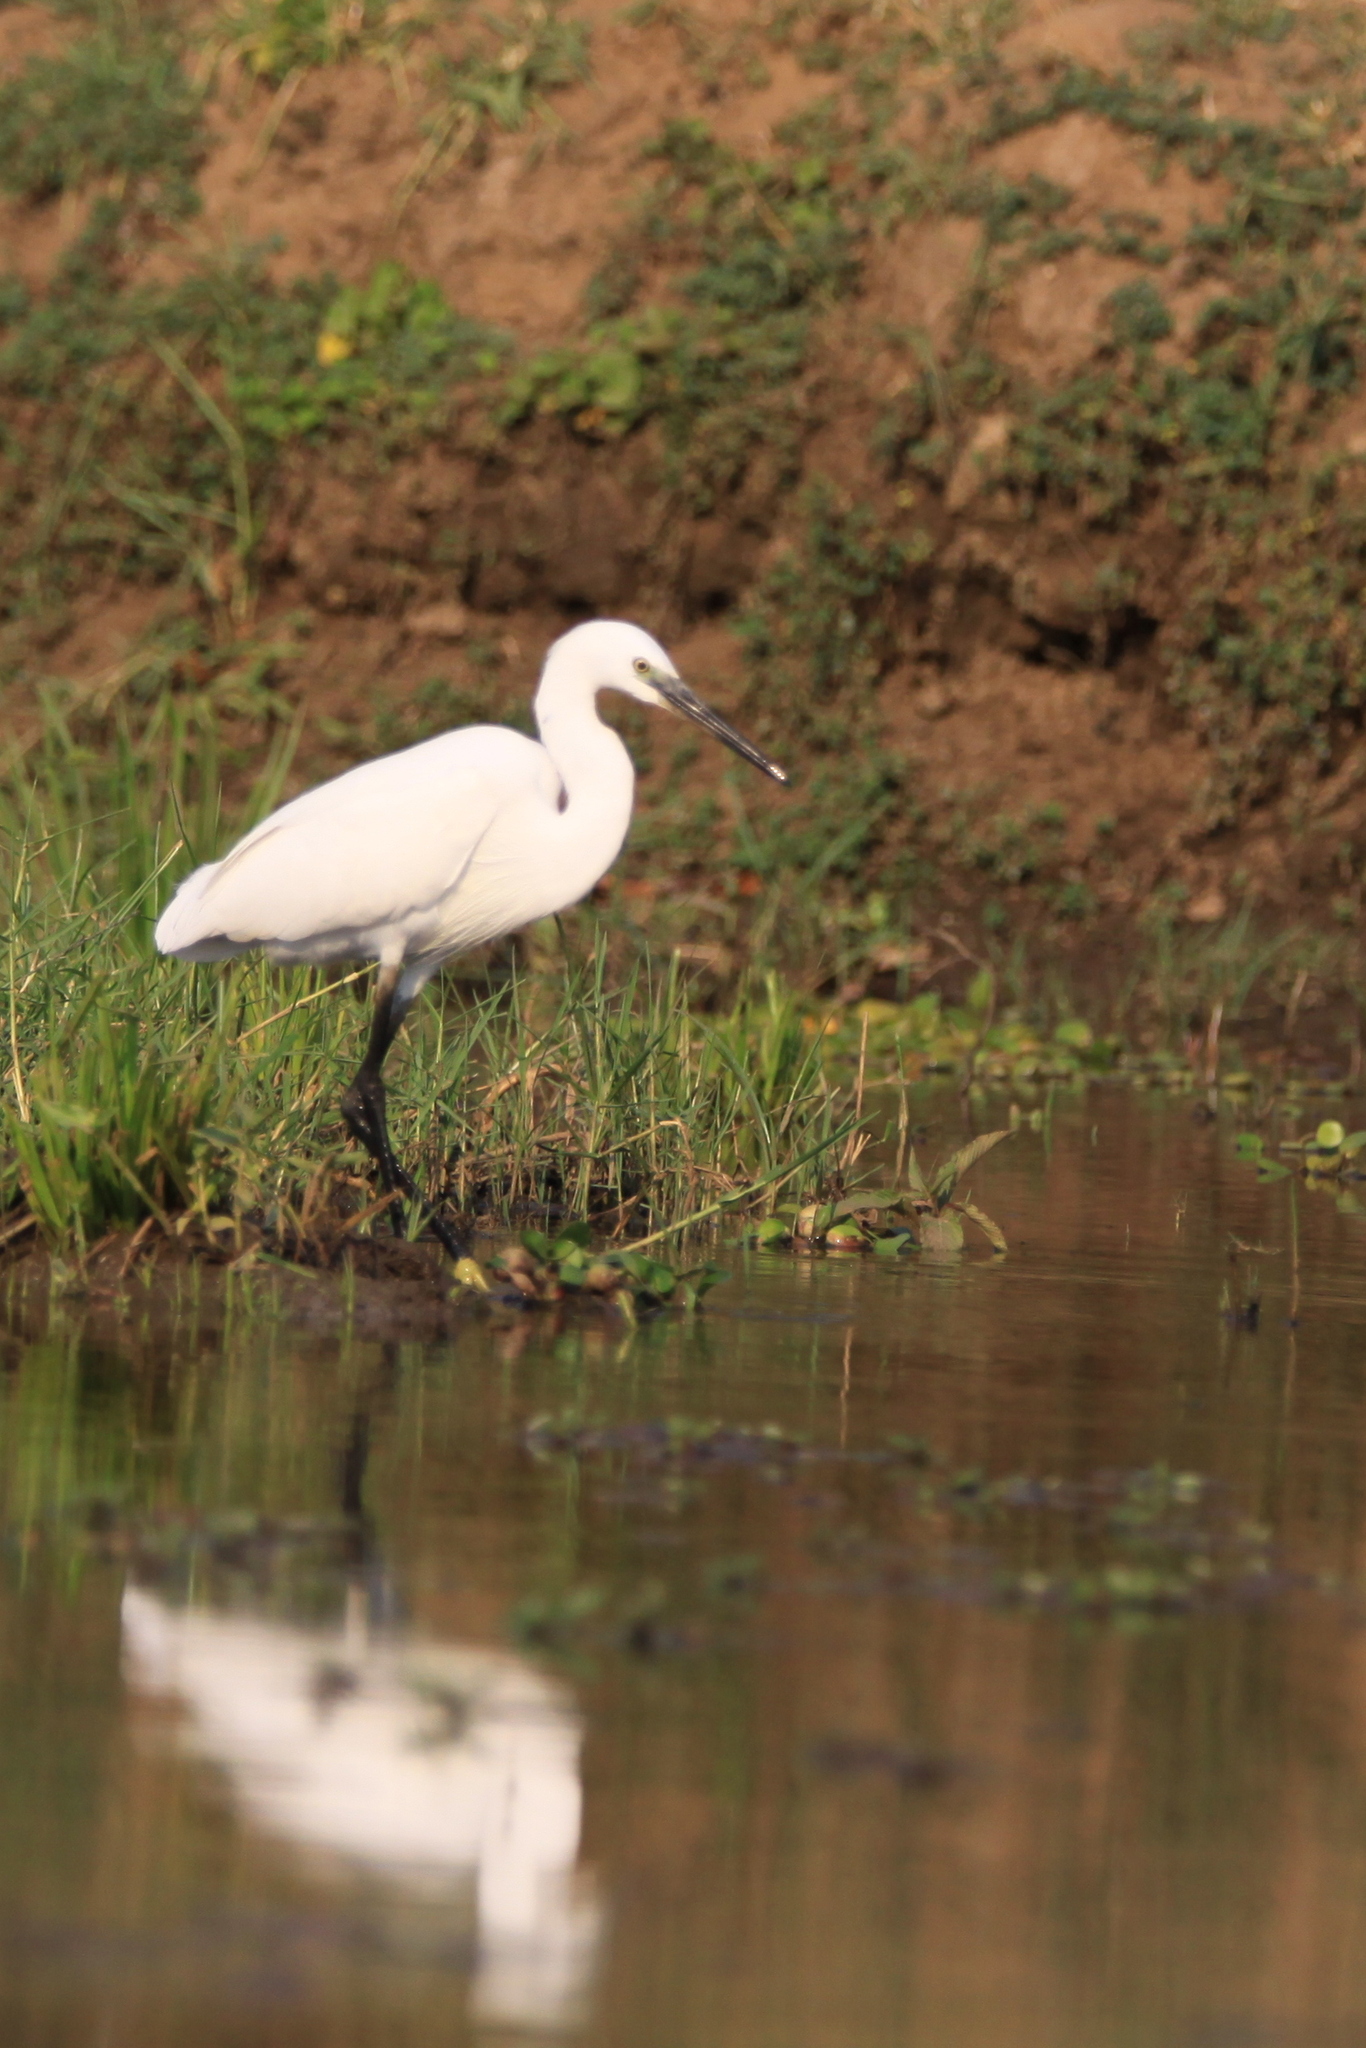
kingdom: Animalia
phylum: Chordata
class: Aves
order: Pelecaniformes
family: Ardeidae
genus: Egretta
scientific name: Egretta garzetta
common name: Little egret
